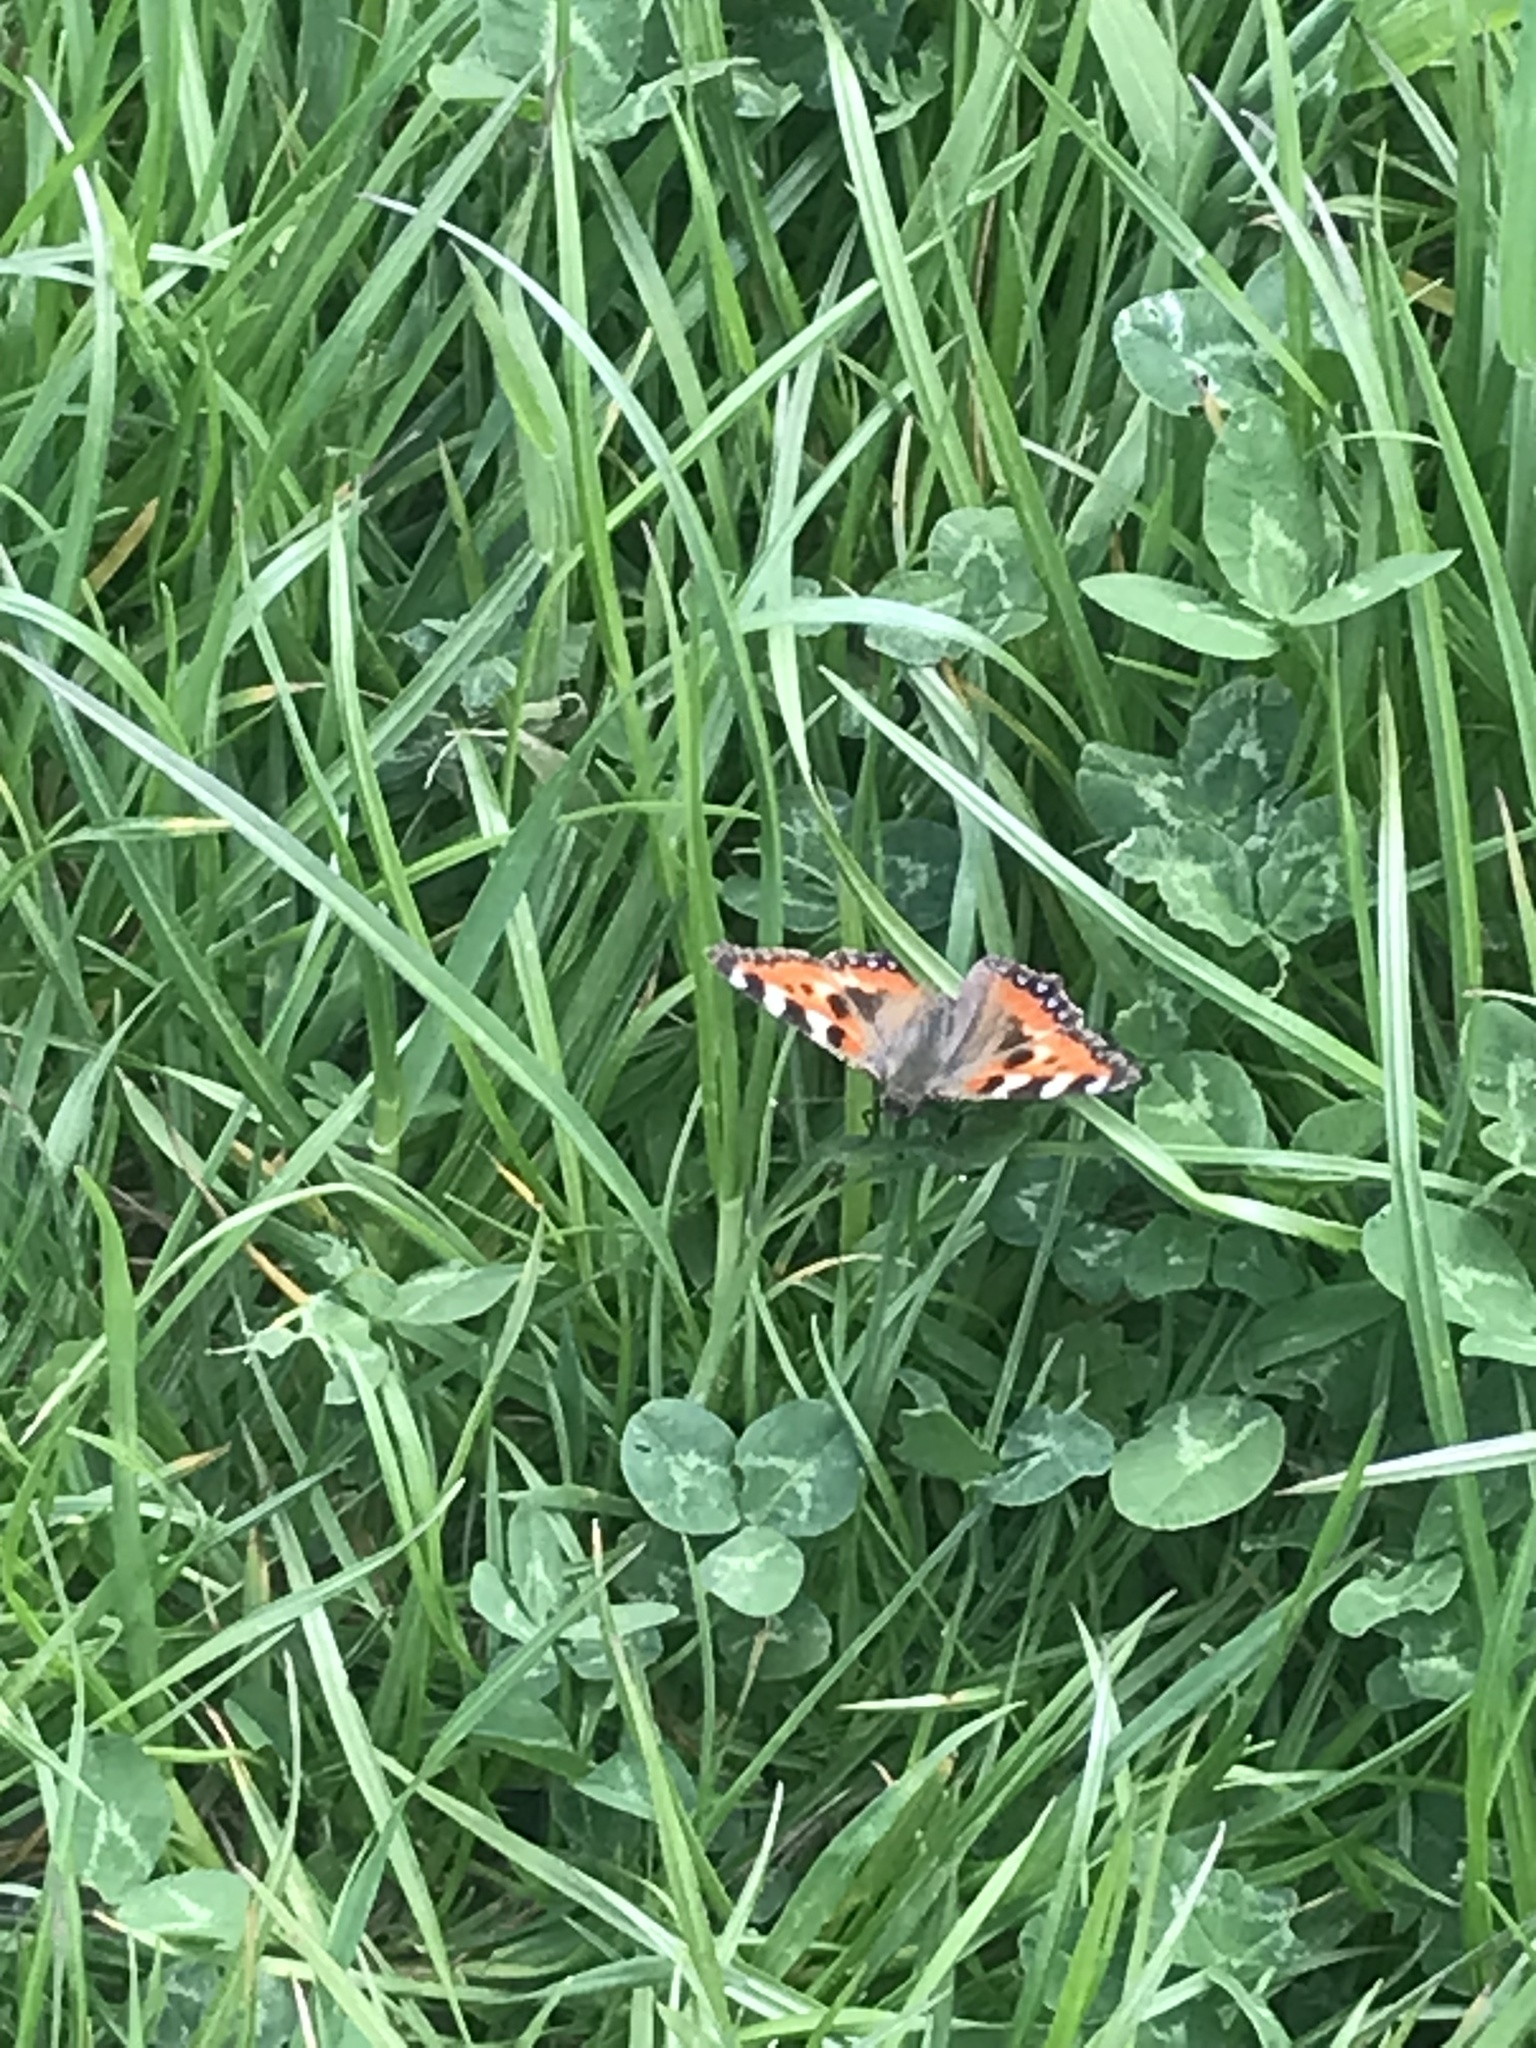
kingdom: Animalia
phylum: Arthropoda
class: Insecta
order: Lepidoptera
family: Nymphalidae
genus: Aglais
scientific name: Aglais urticae
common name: Small tortoiseshell
